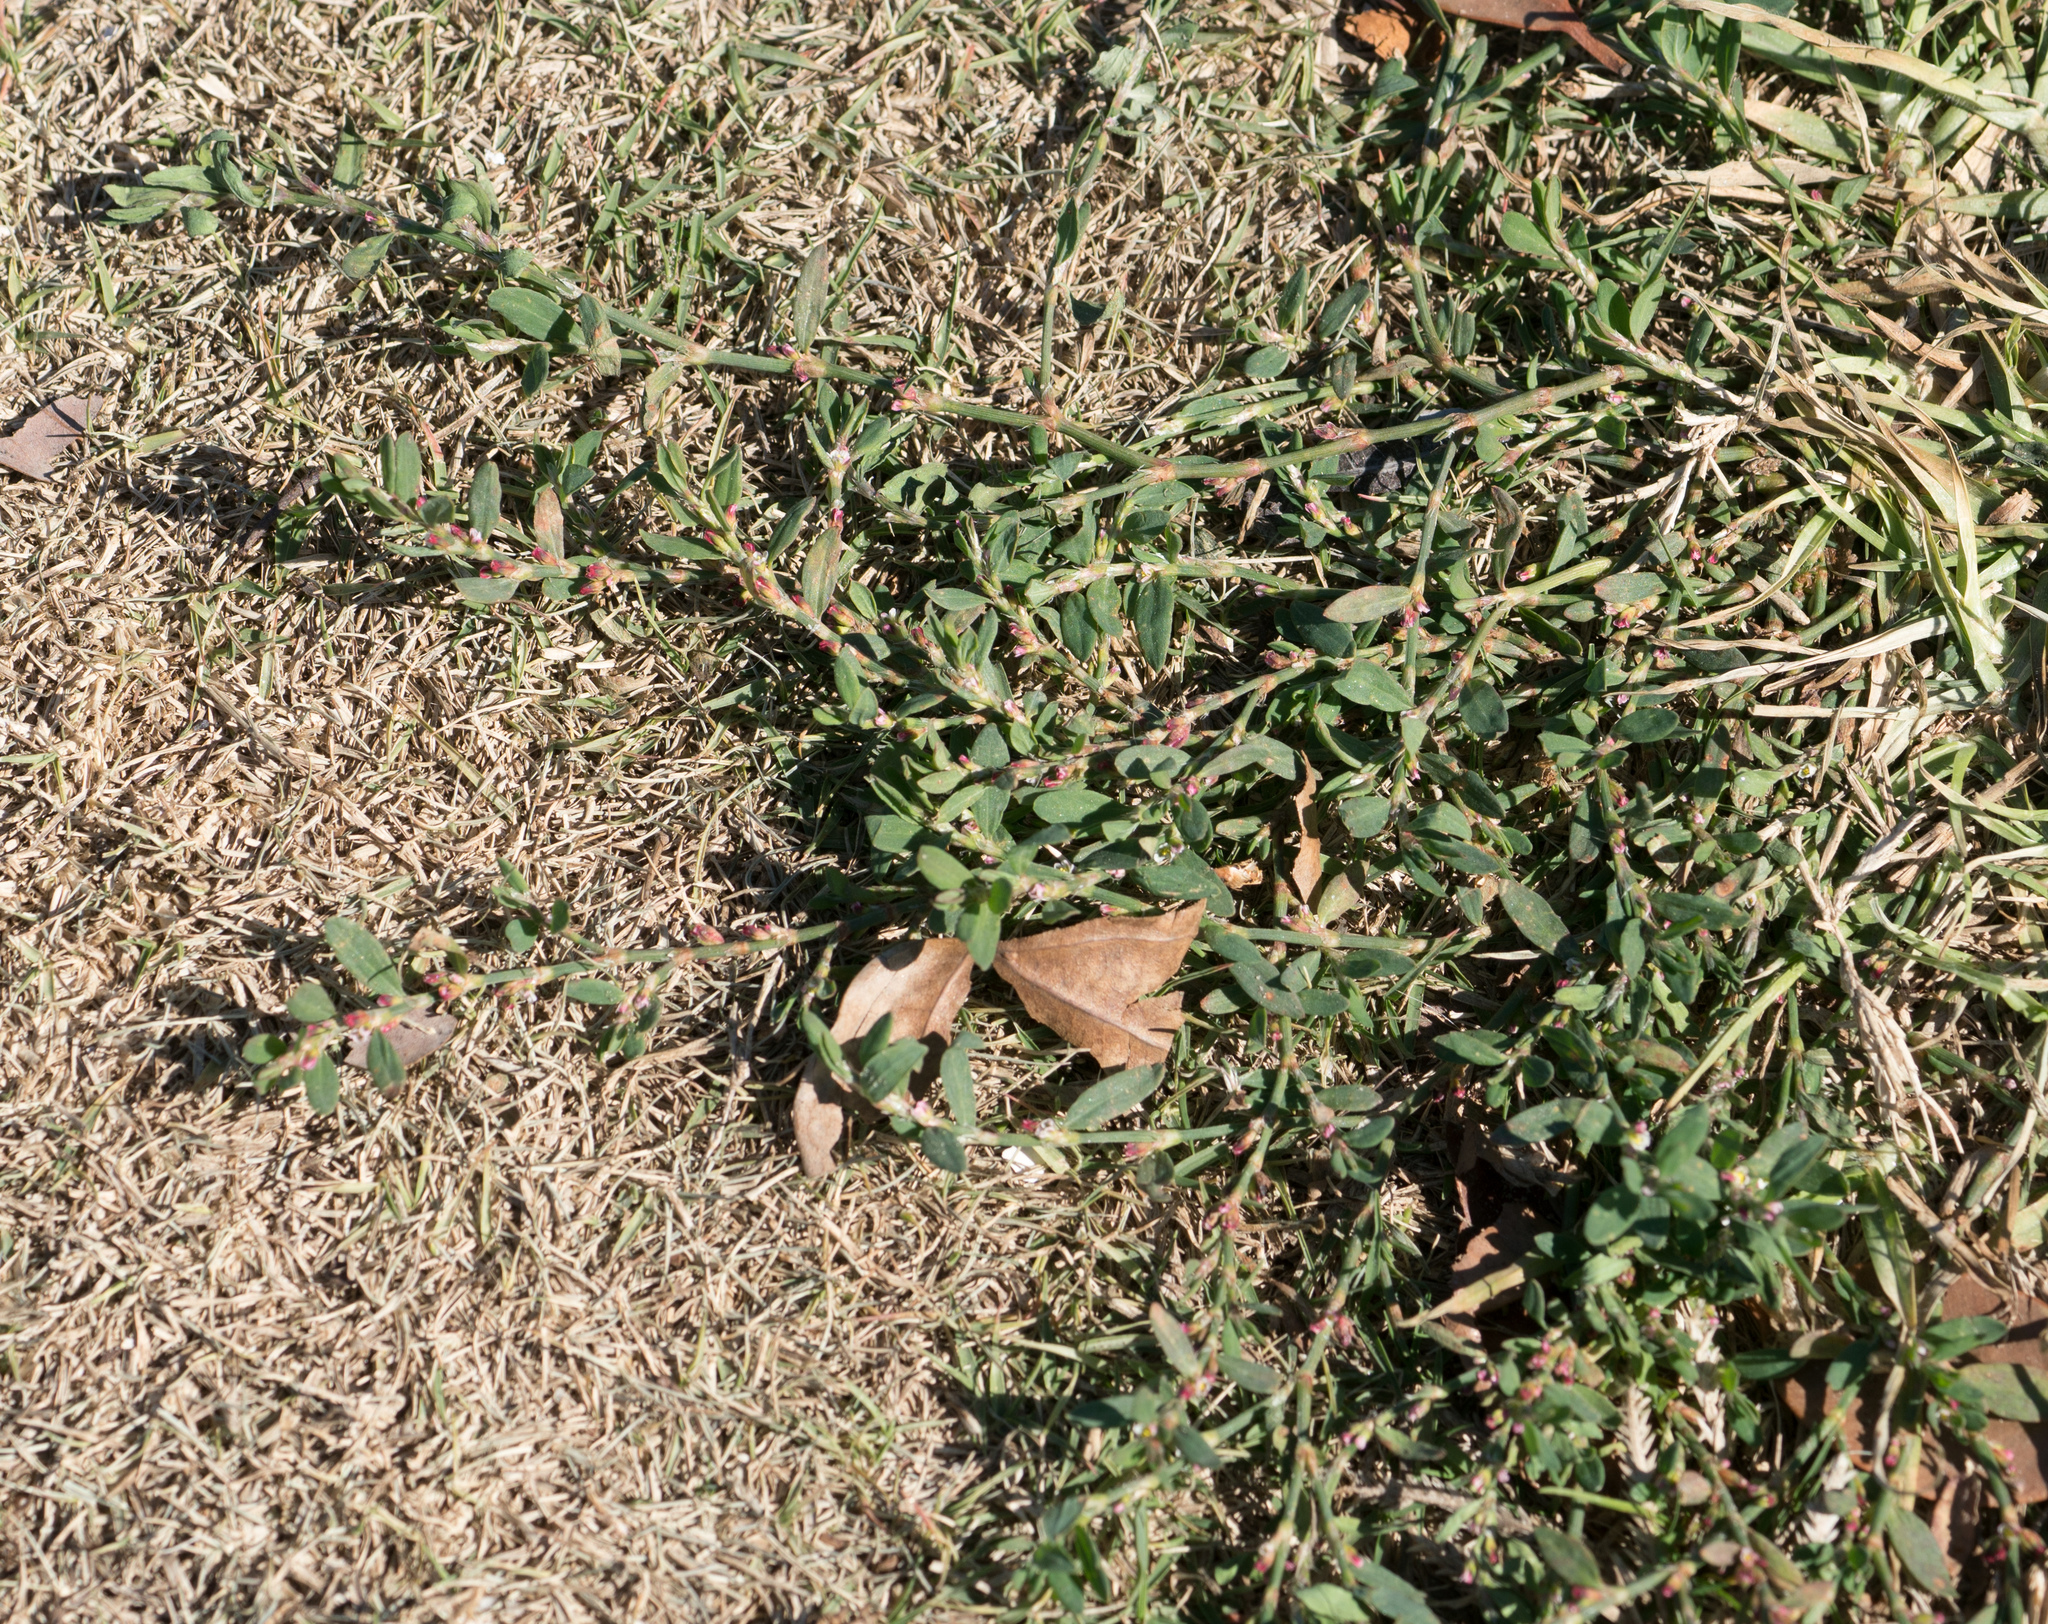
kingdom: Plantae
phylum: Tracheophyta
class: Magnoliopsida
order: Caryophyllales
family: Polygonaceae
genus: Polygonum
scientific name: Polygonum aviculare
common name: Prostrate knotweed
